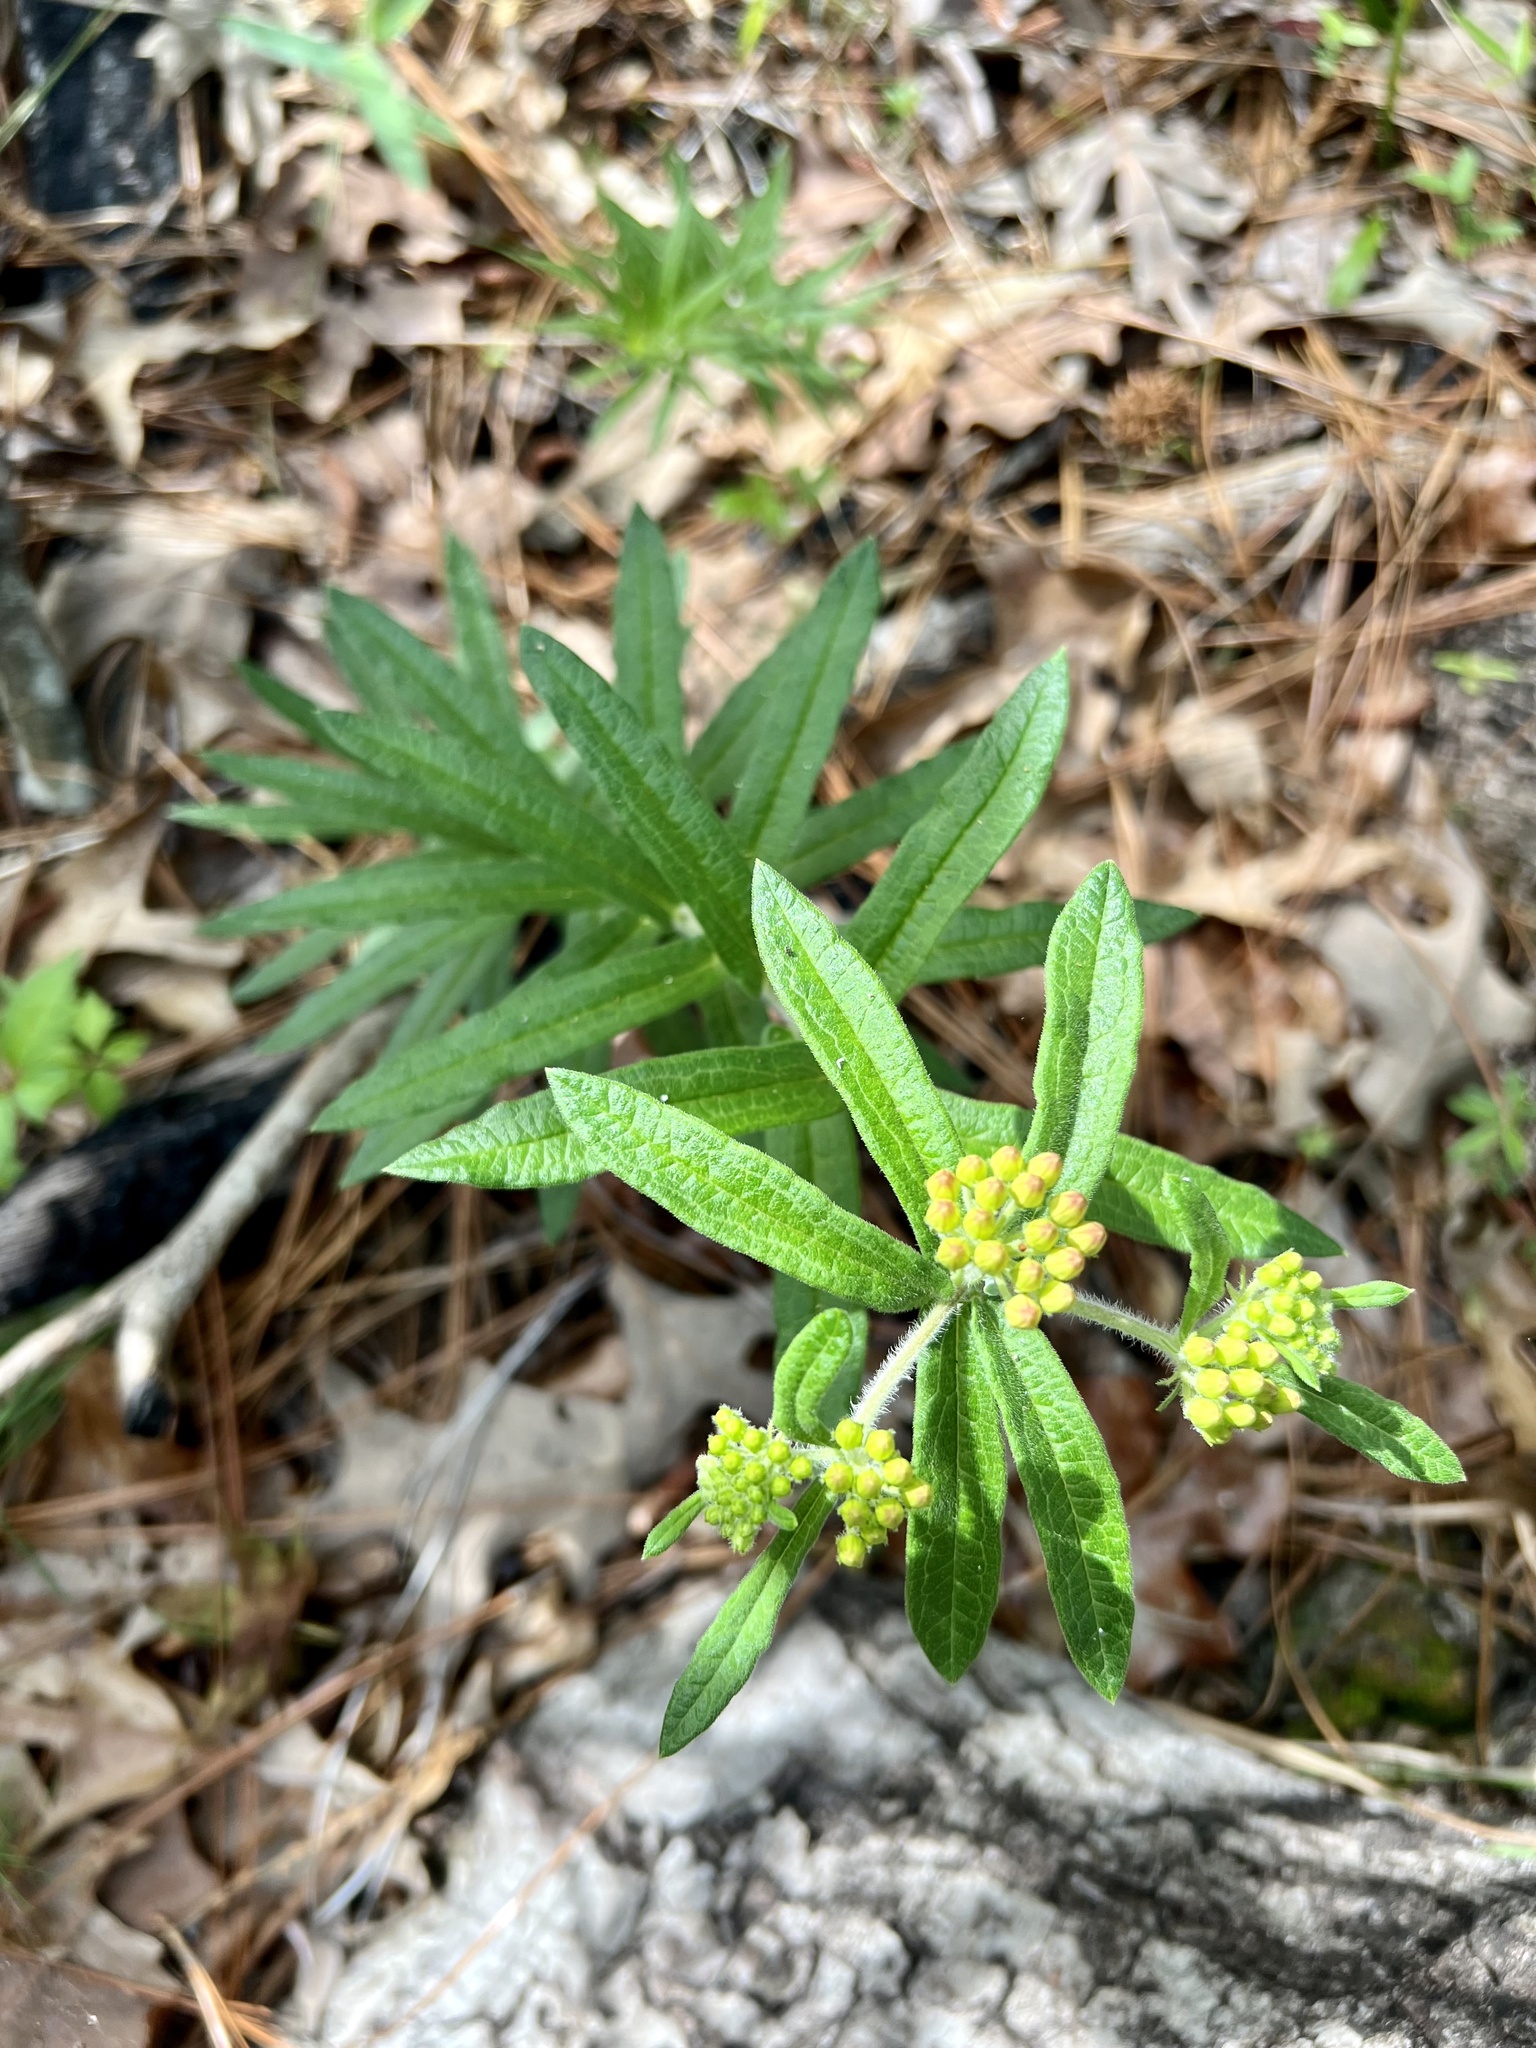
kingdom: Plantae
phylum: Tracheophyta
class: Magnoliopsida
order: Gentianales
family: Apocynaceae
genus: Asclepias
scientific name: Asclepias tuberosa
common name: Butterfly milkweed
